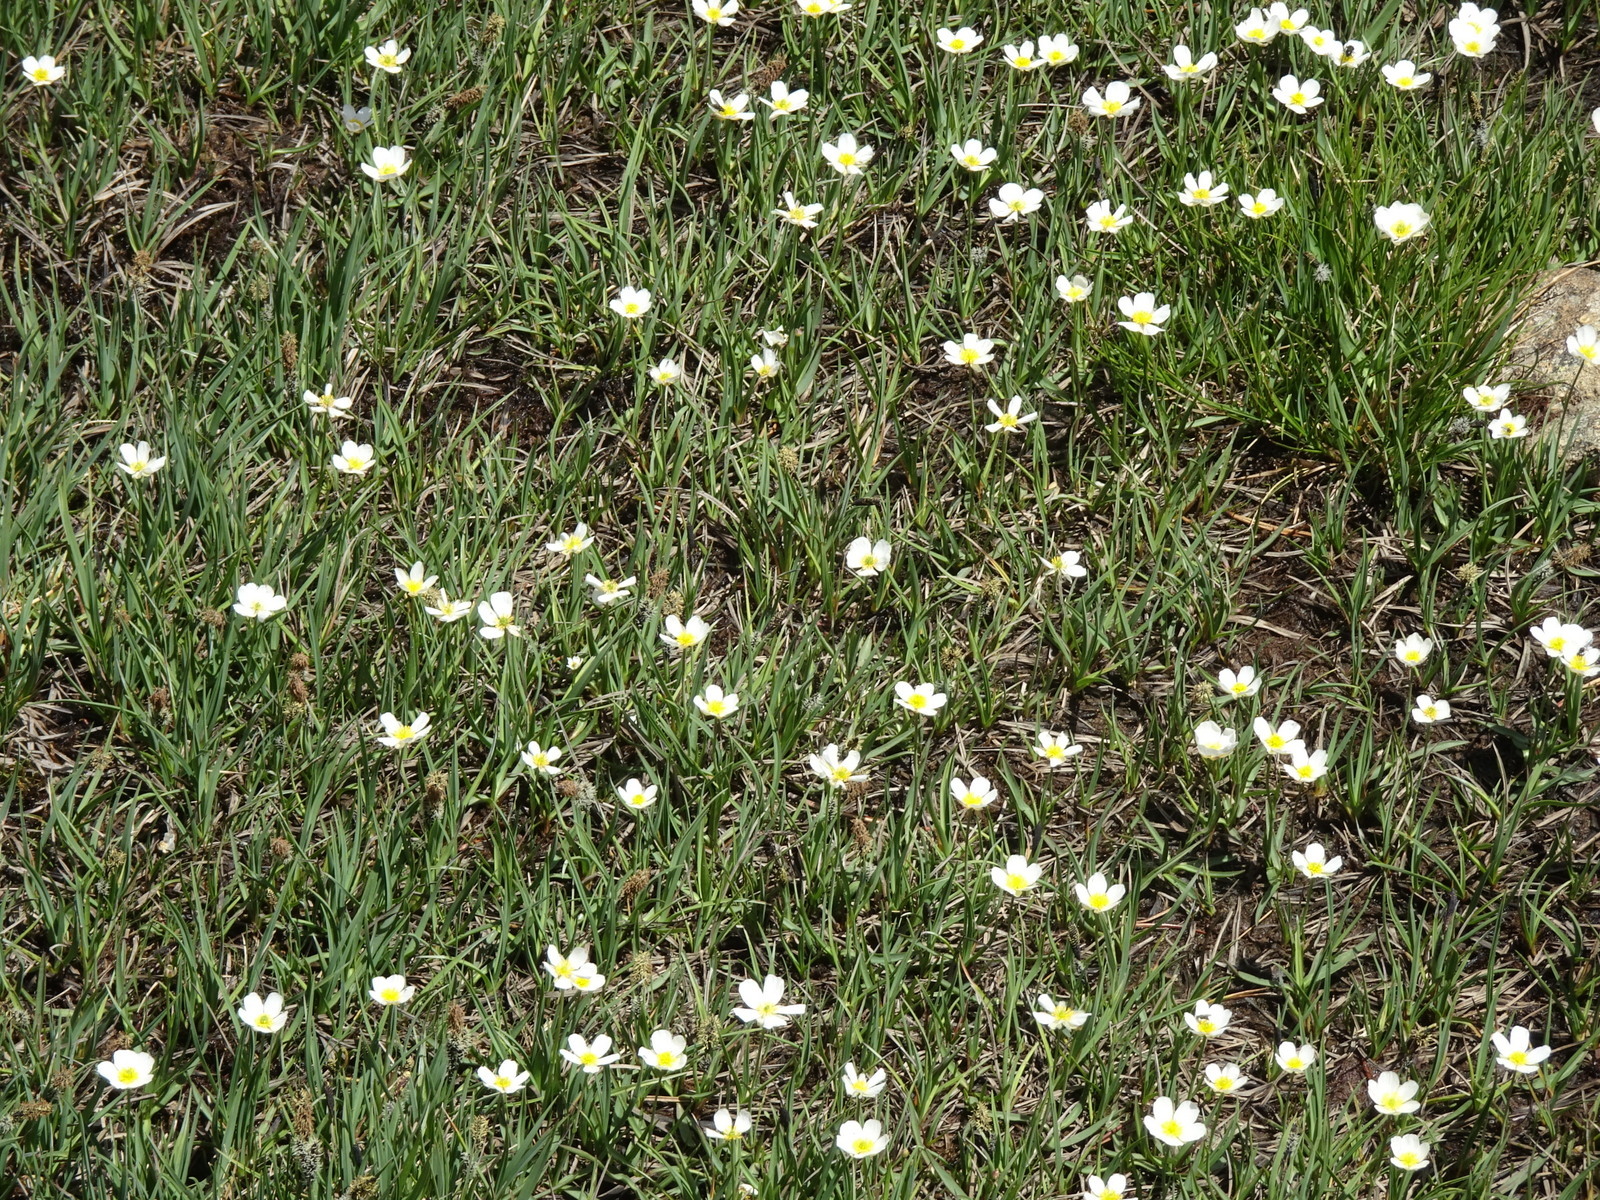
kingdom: Plantae
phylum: Tracheophyta
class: Magnoliopsida
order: Ranunculales
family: Ranunculaceae
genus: Ranunculus
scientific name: Ranunculus pyrenaeus
